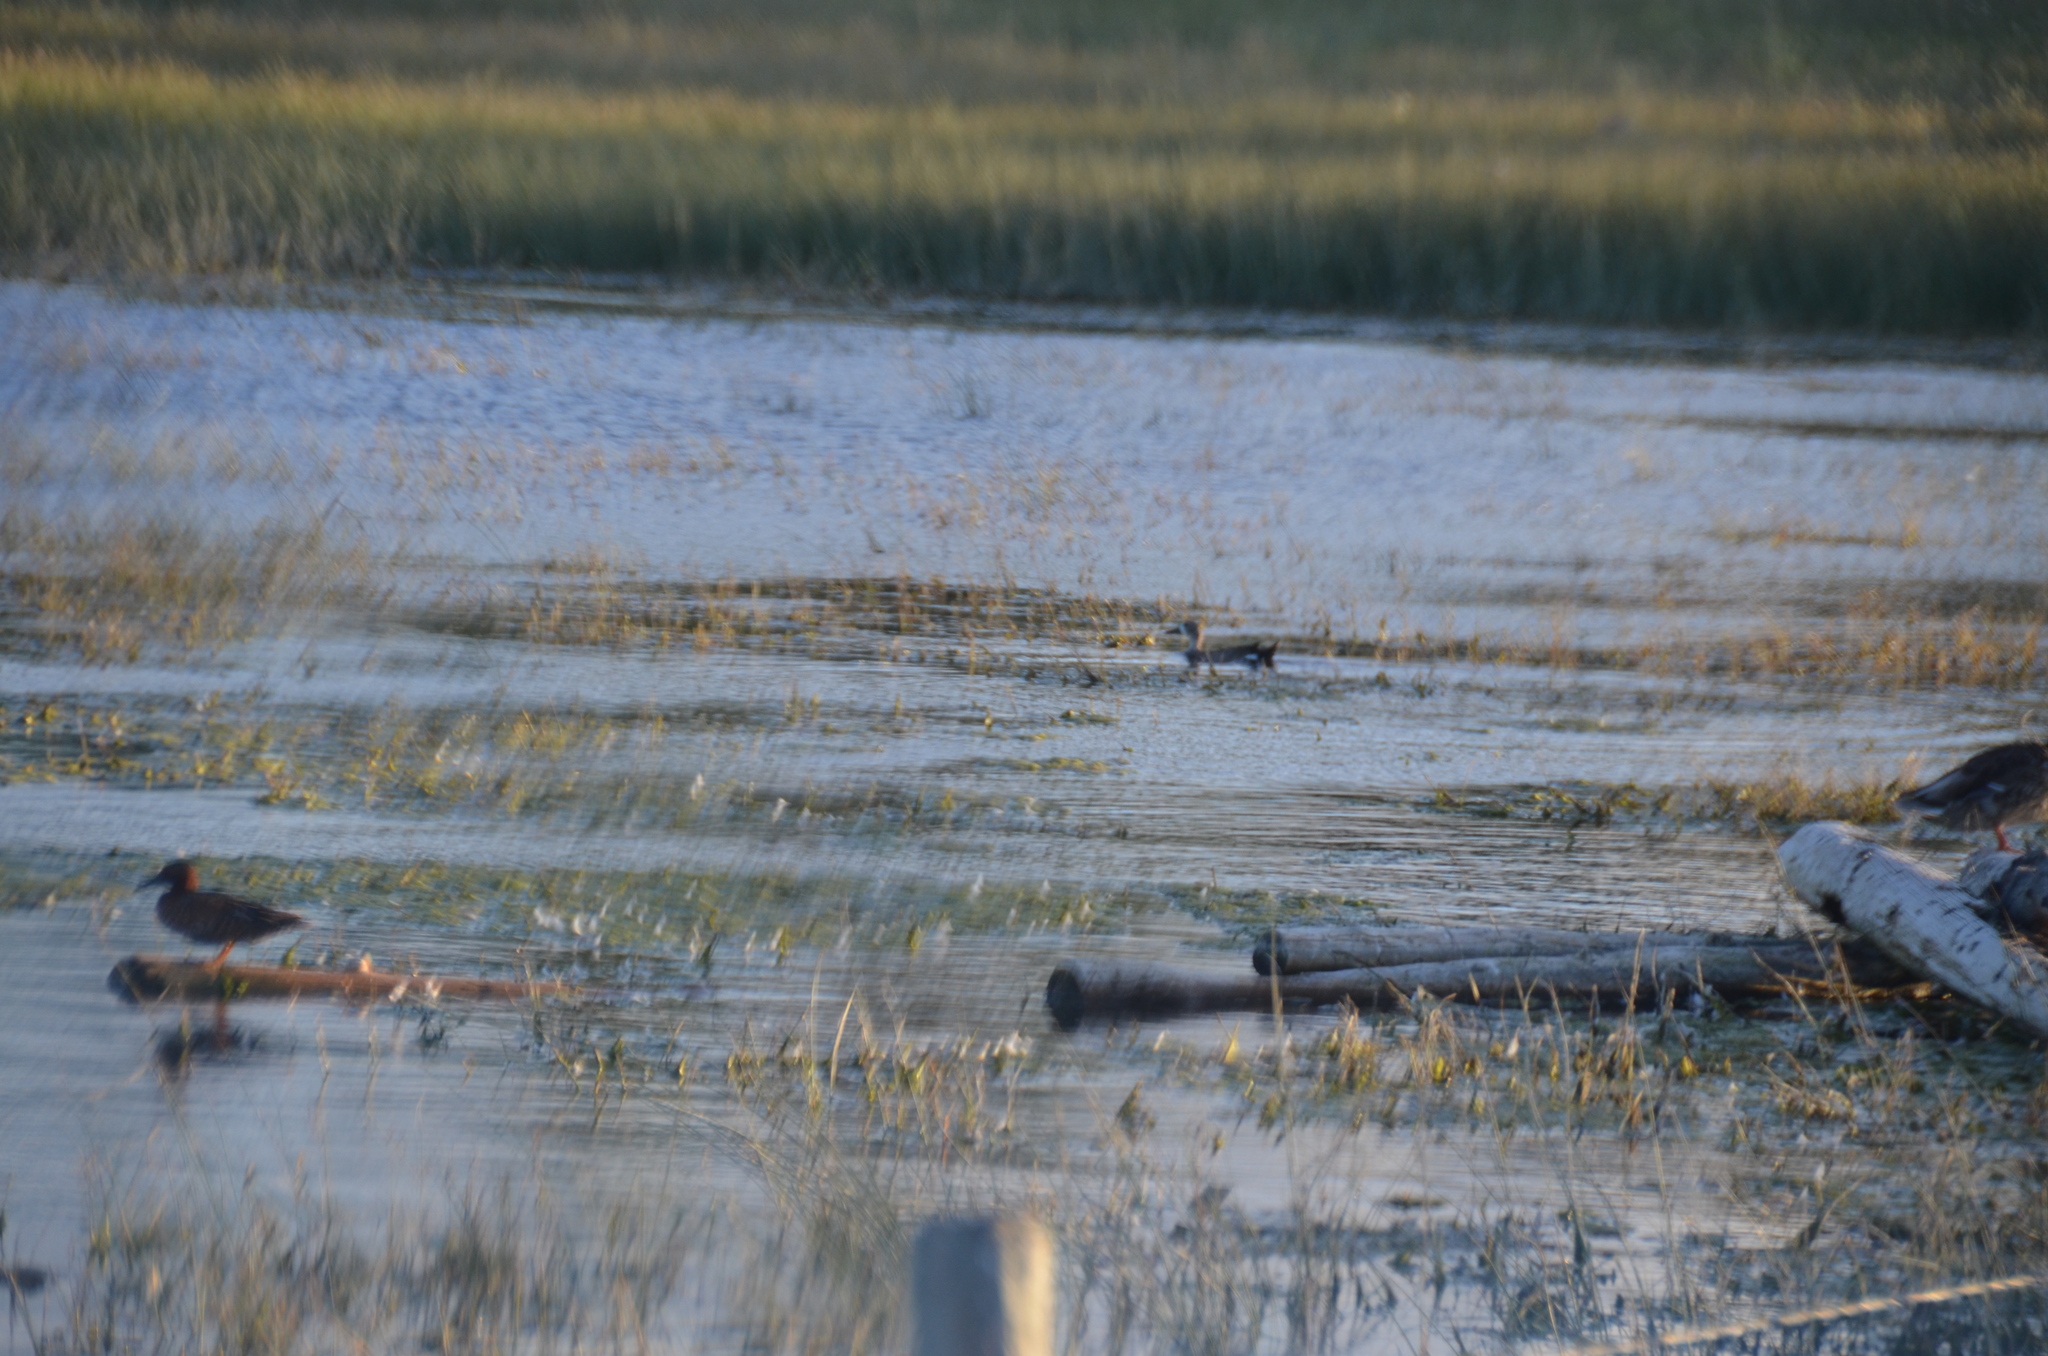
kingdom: Animalia
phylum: Chordata
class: Aves
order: Anseriformes
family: Anatidae
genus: Spatula
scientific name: Spatula cyanoptera
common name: Cinnamon teal
